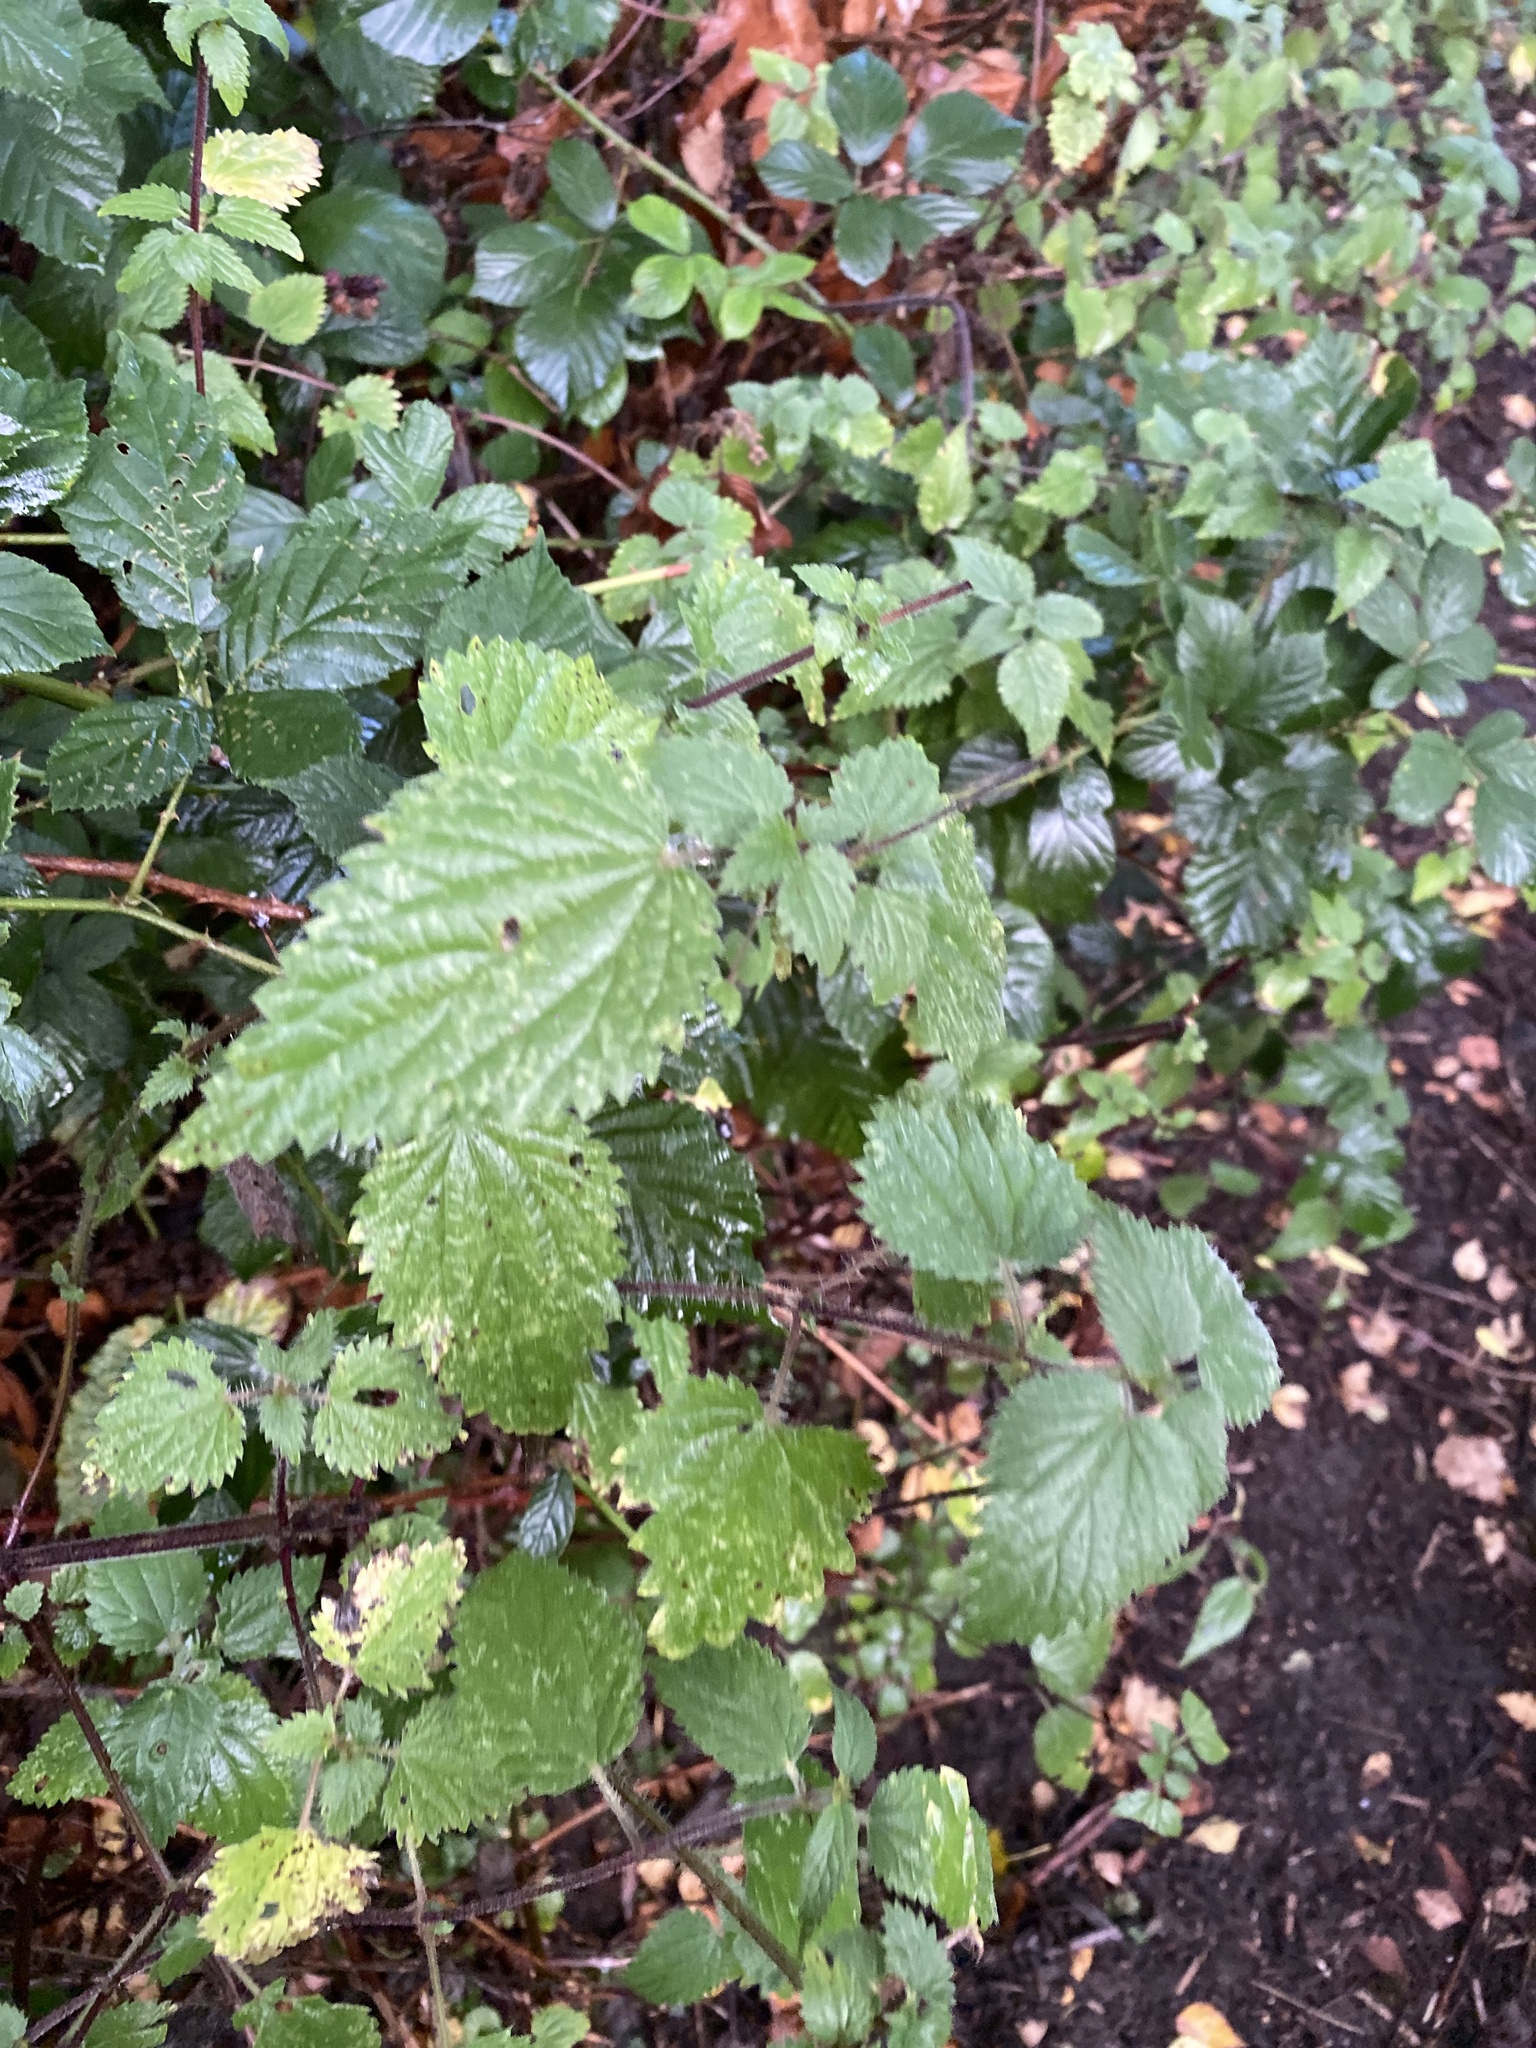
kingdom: Plantae
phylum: Tracheophyta
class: Magnoliopsida
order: Rosales
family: Urticaceae
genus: Urtica
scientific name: Urtica dioica
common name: Common nettle
